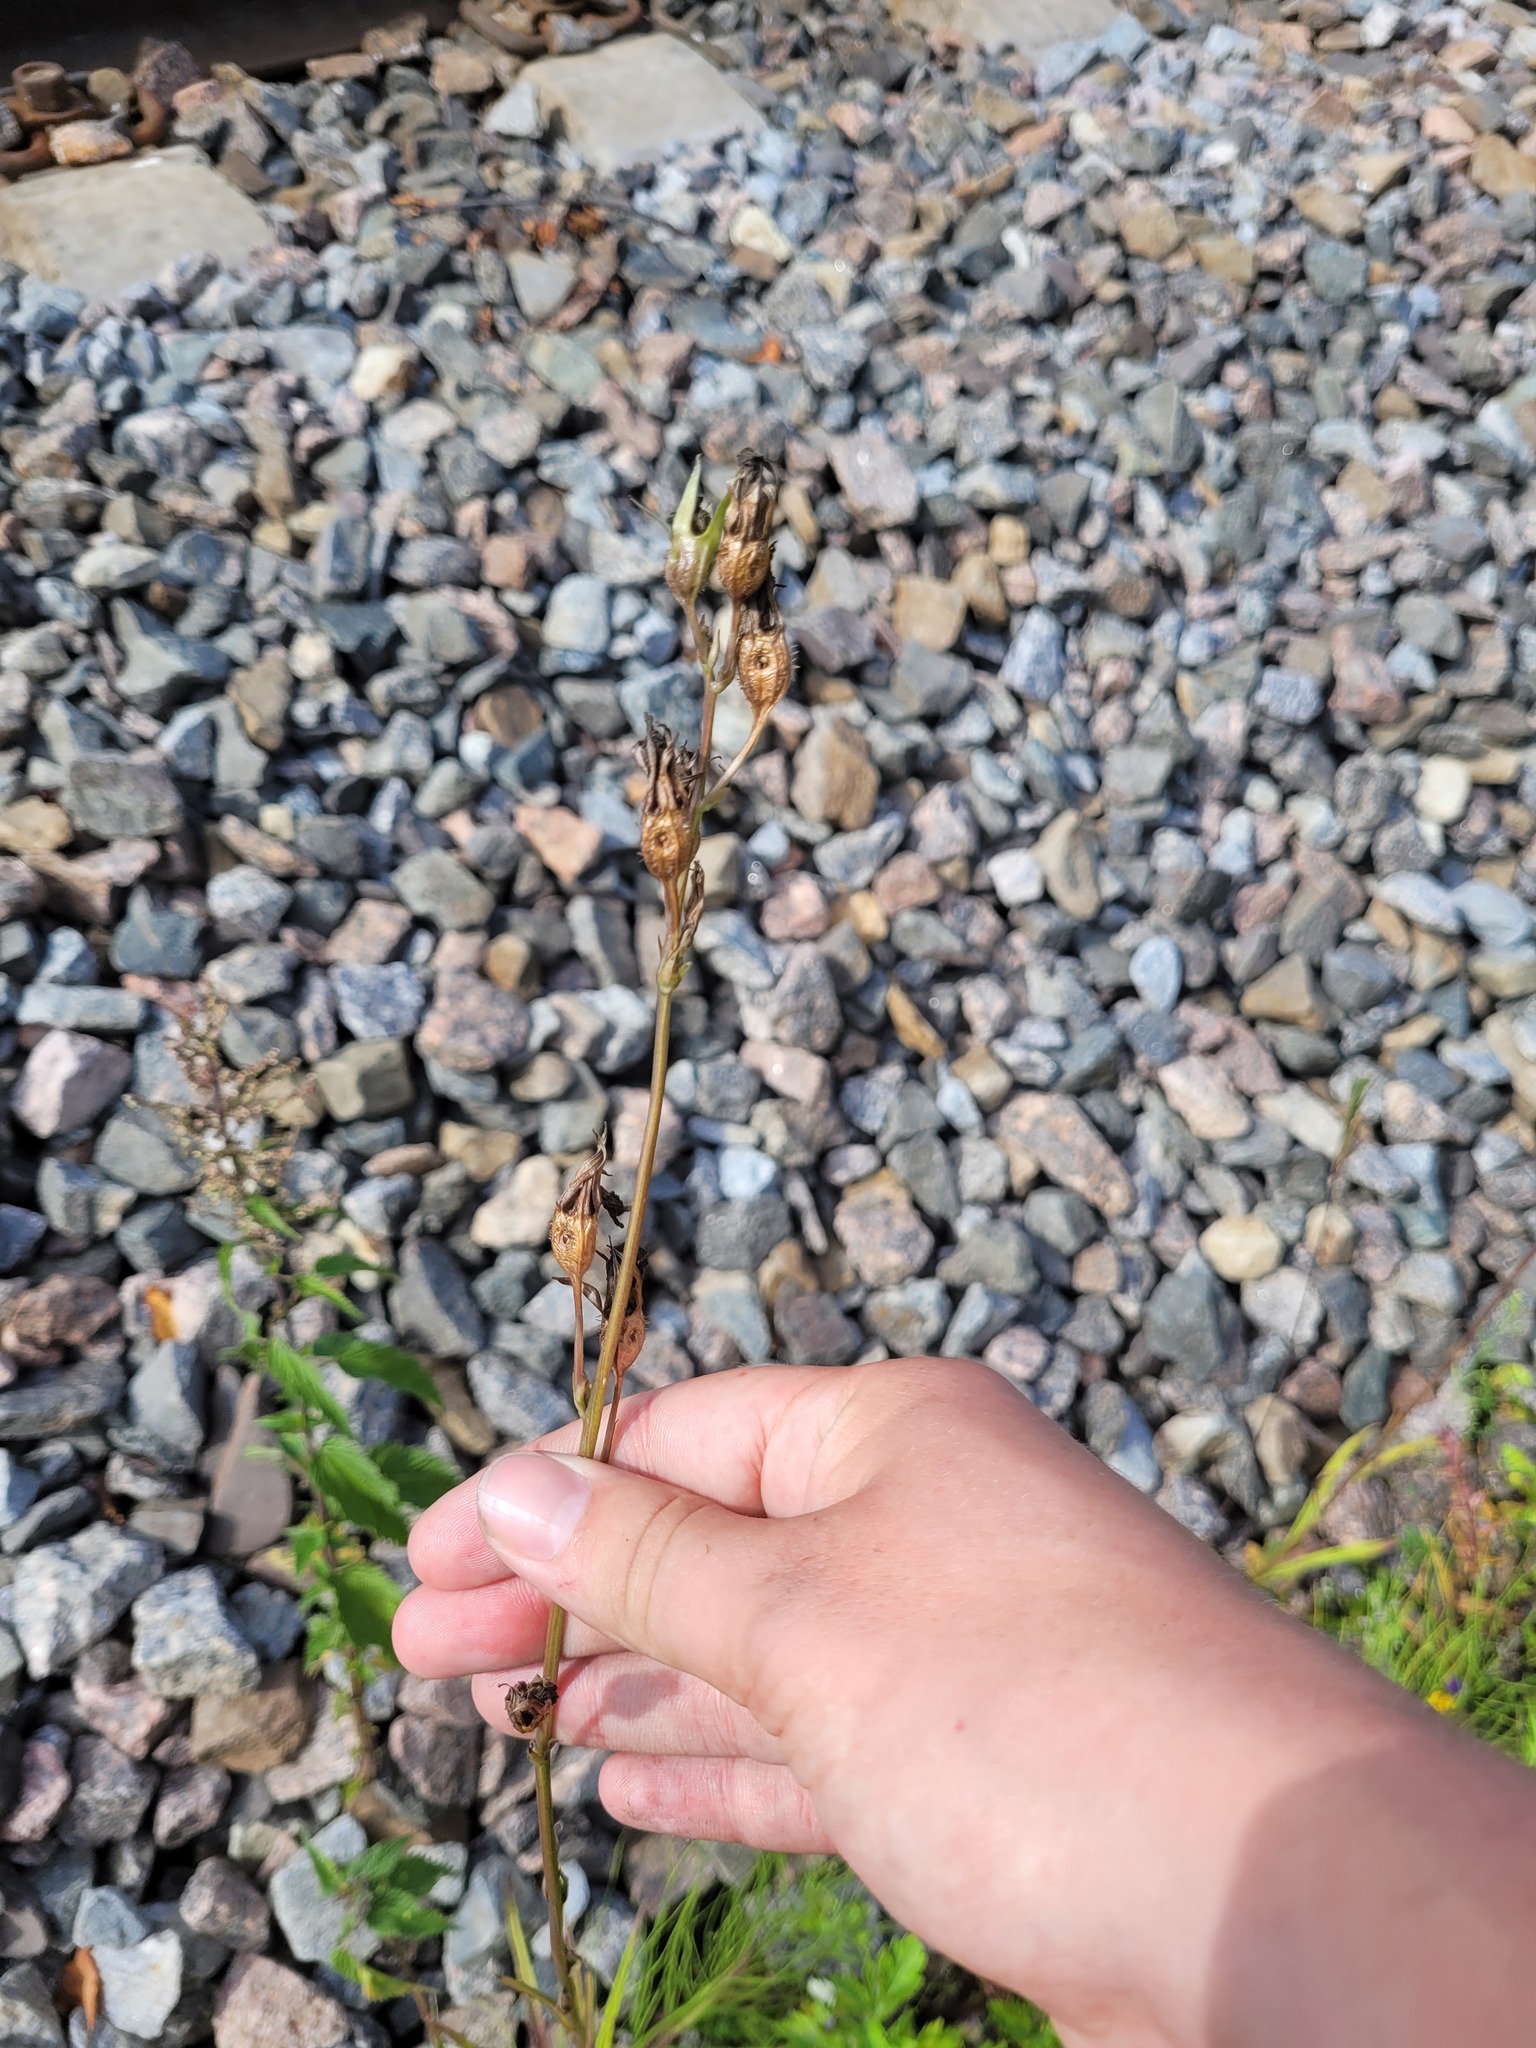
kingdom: Plantae
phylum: Tracheophyta
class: Magnoliopsida
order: Asterales
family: Campanulaceae
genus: Campanula
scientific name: Campanula persicifolia
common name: Peach-leaved bellflower
